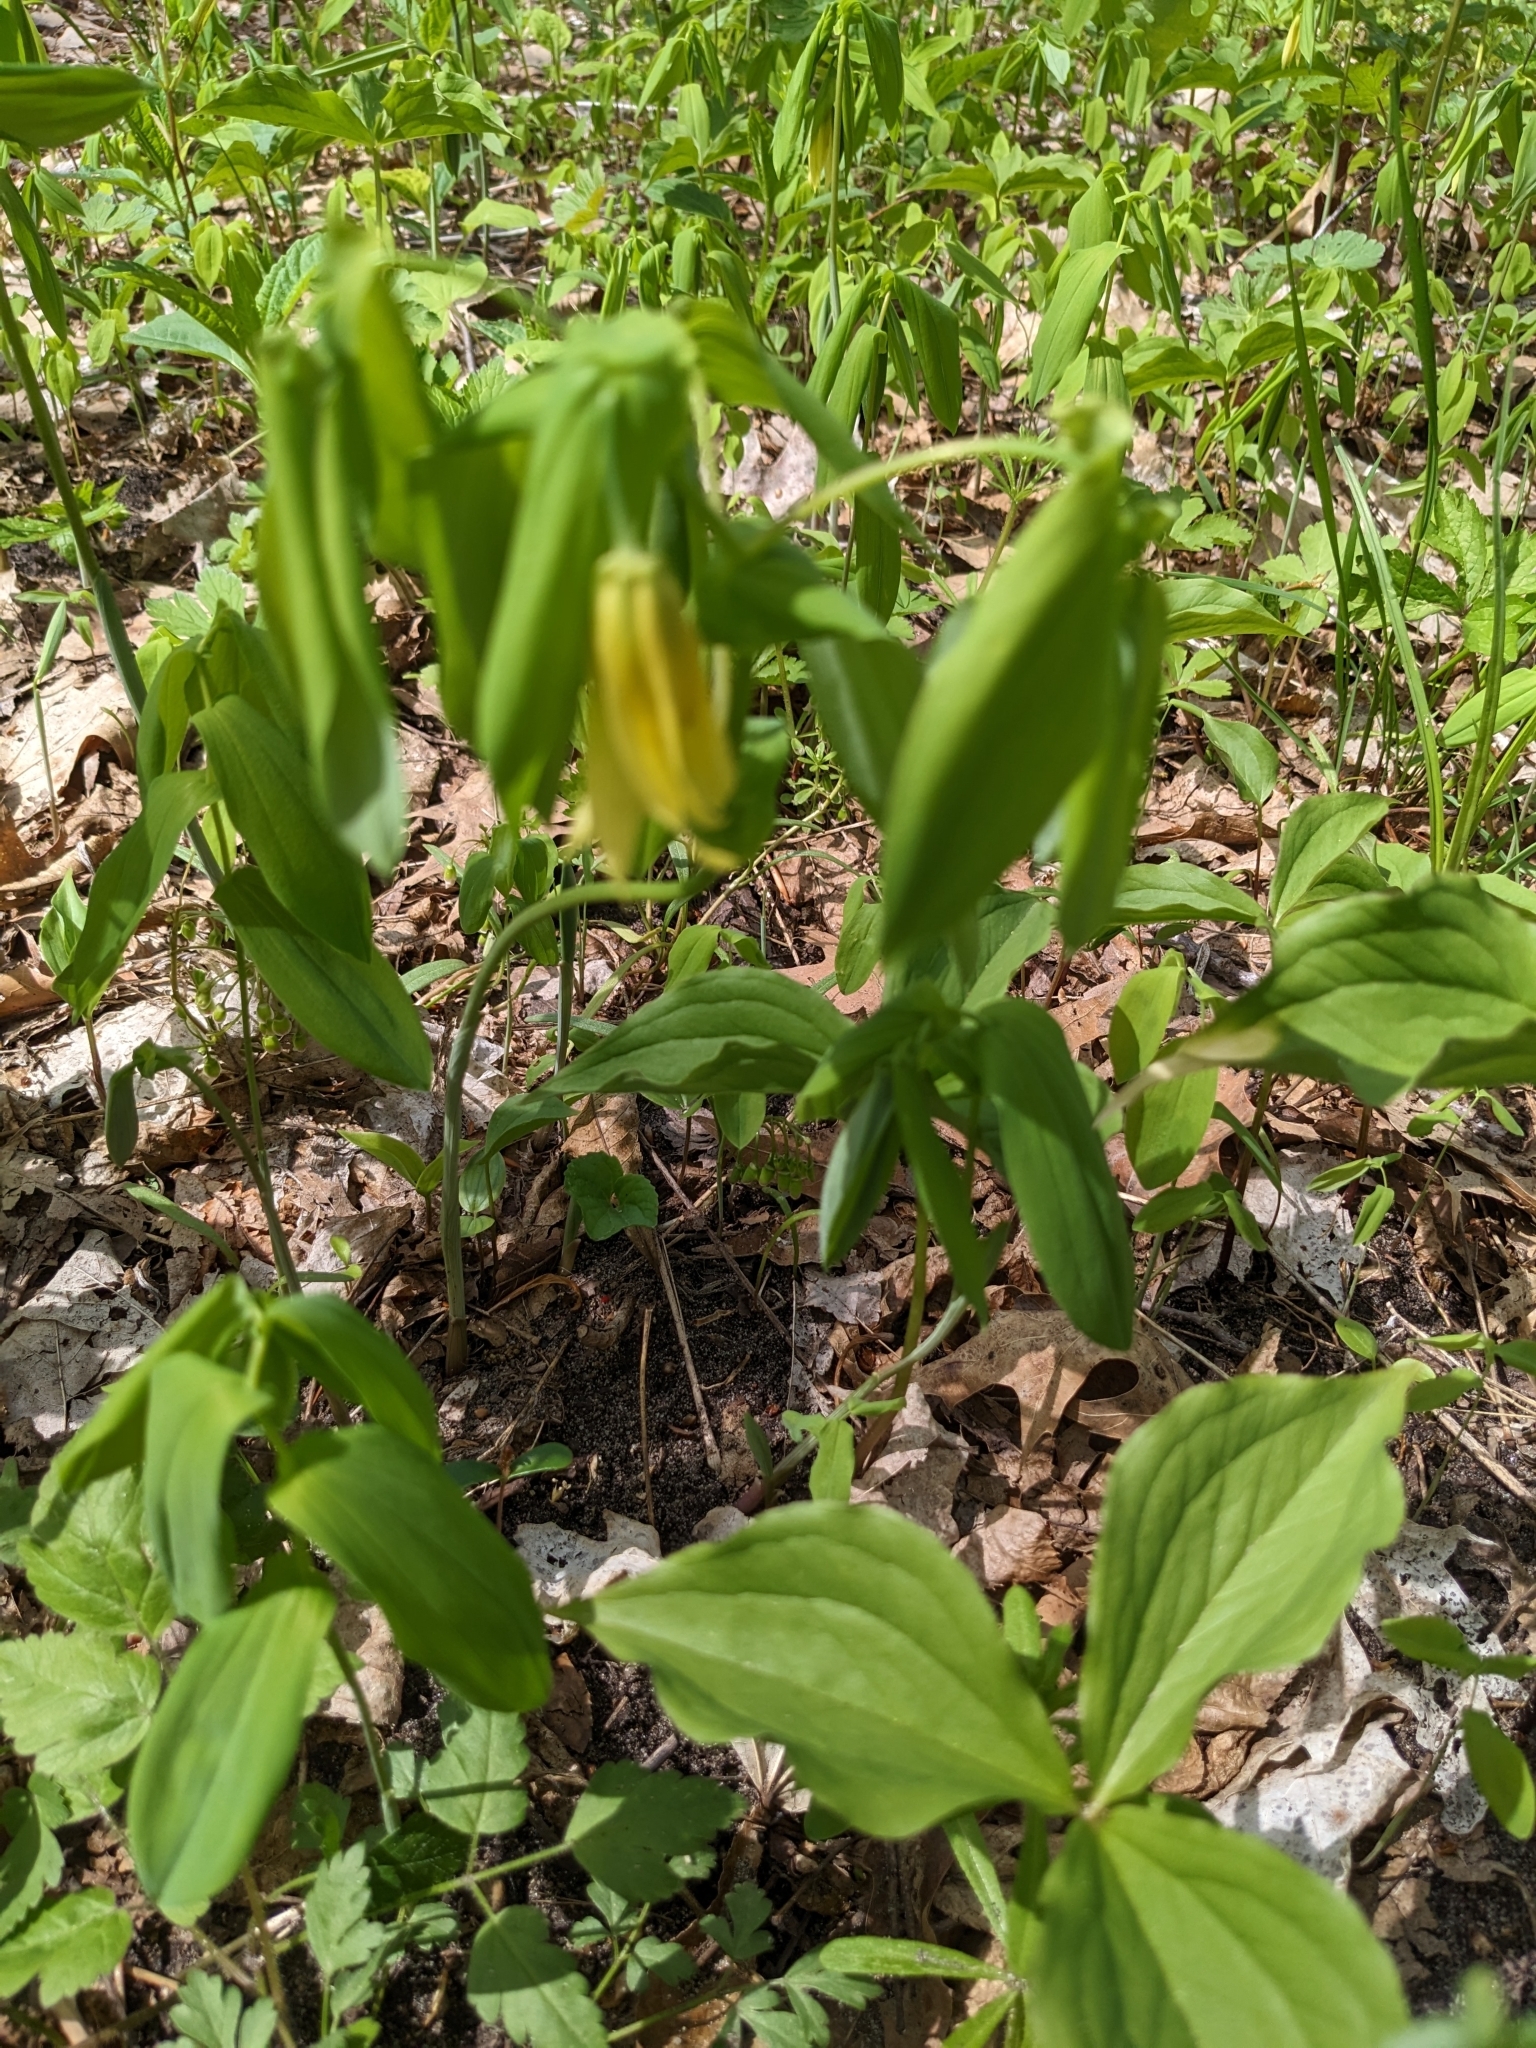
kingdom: Plantae
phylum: Tracheophyta
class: Liliopsida
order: Liliales
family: Colchicaceae
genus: Uvularia
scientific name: Uvularia grandiflora
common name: Bellwort
